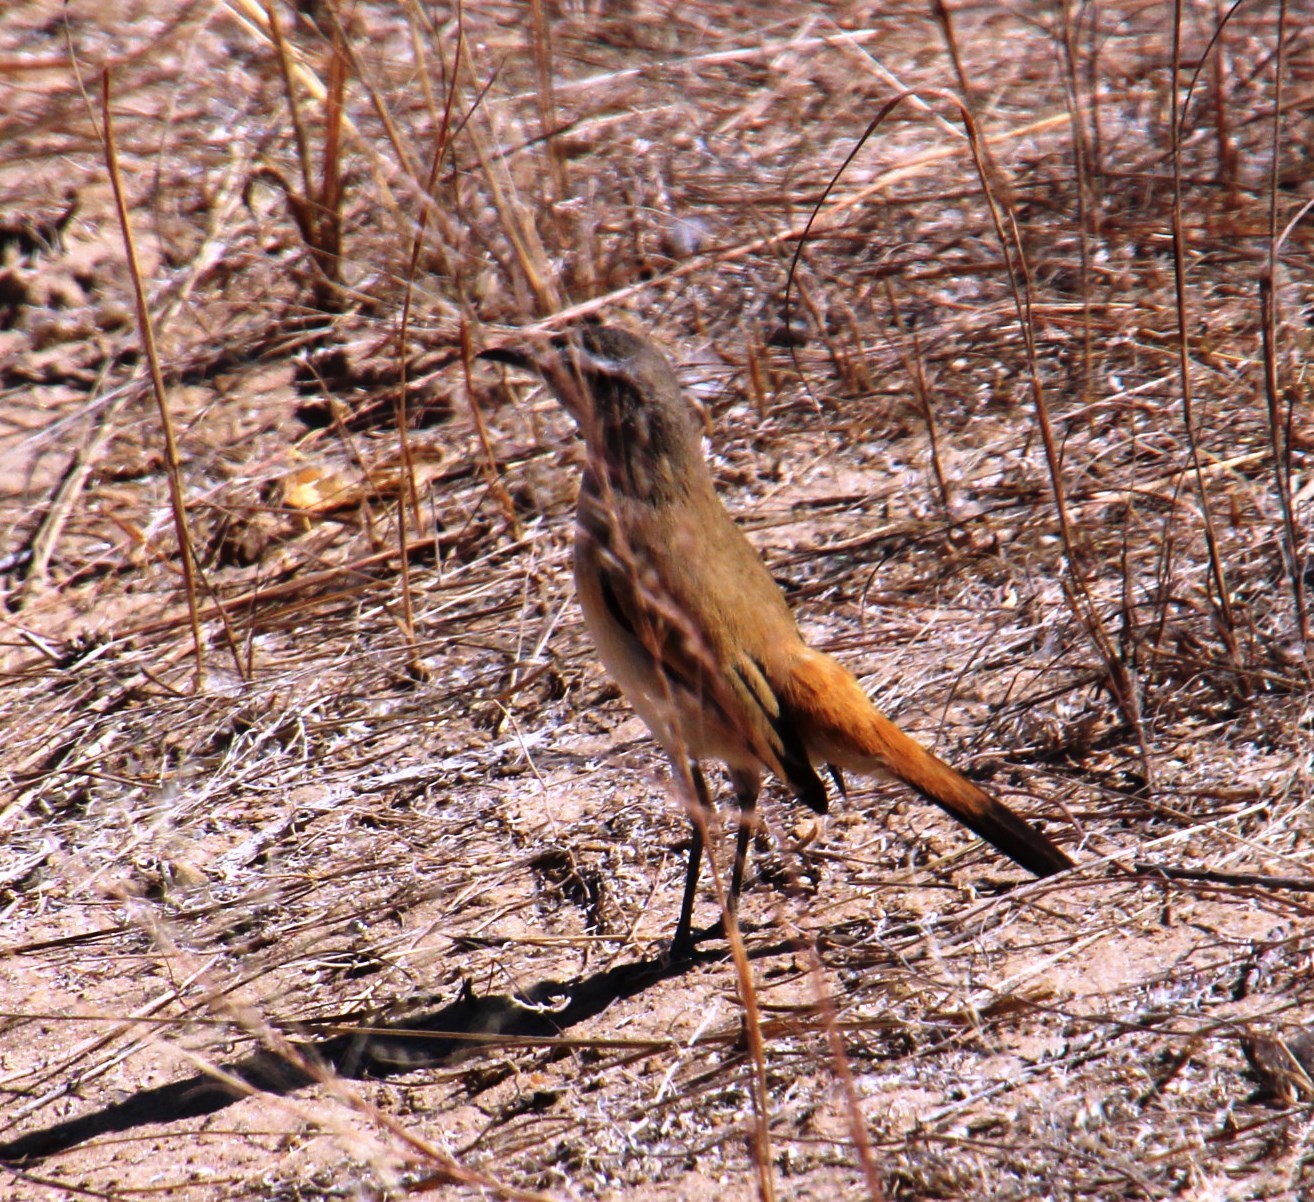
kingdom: Animalia
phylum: Chordata
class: Aves
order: Passeriformes
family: Muscicapidae
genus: Erythropygia
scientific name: Erythropygia paena
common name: Kalahari scrub robin
